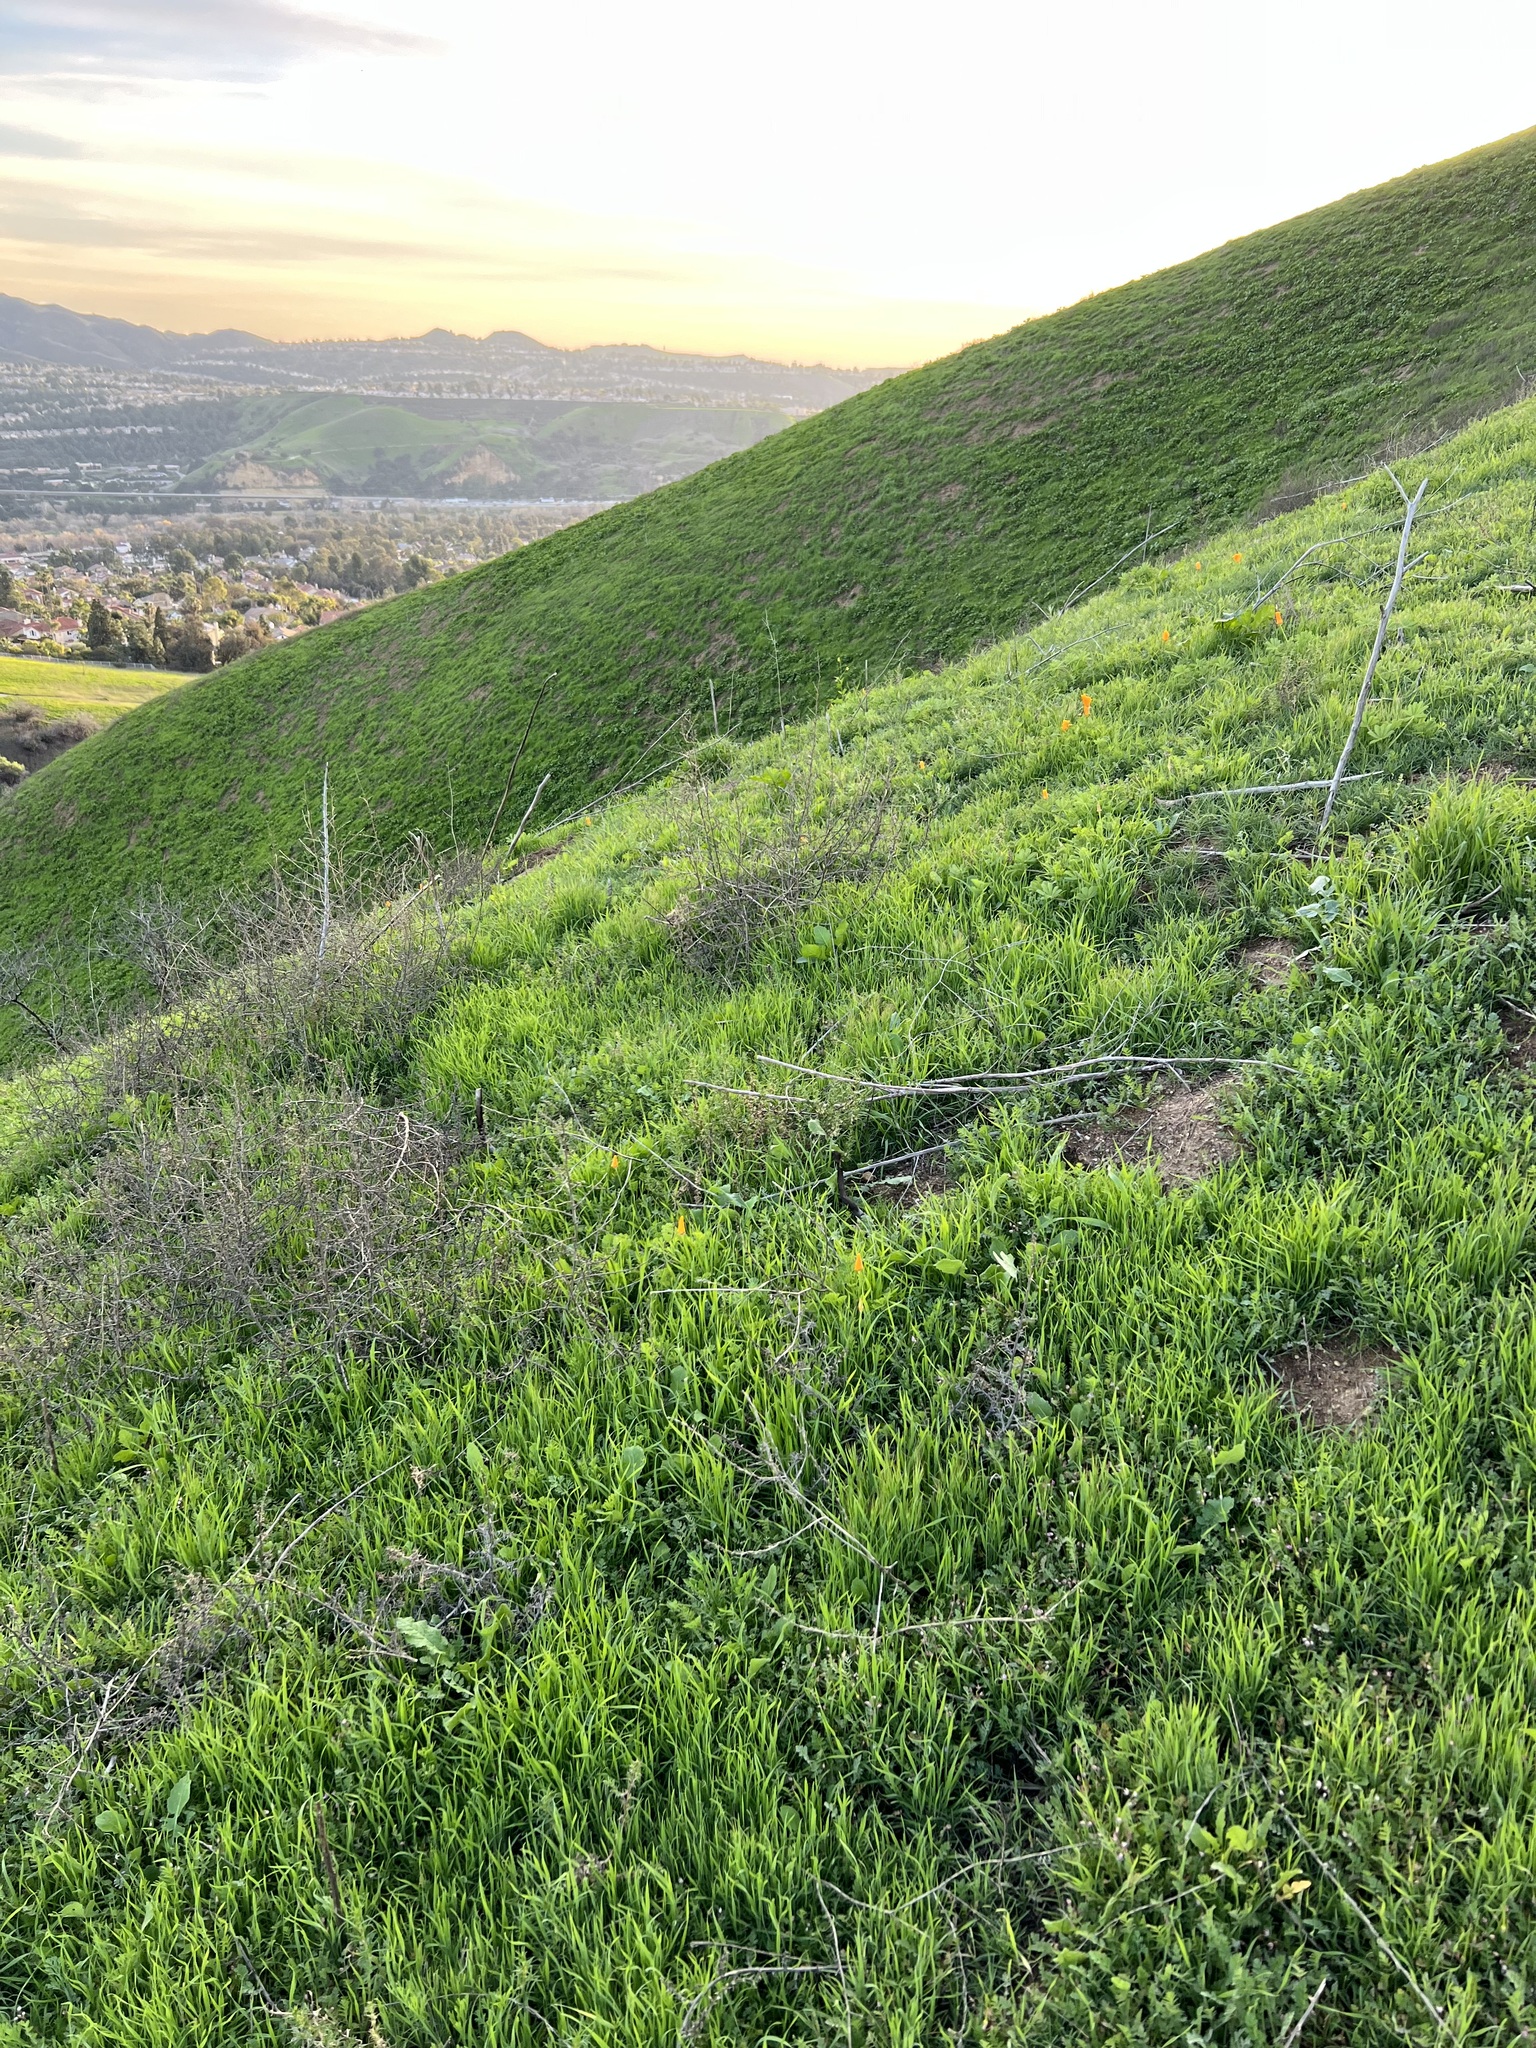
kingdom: Plantae
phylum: Tracheophyta
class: Magnoliopsida
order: Ranunculales
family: Papaveraceae
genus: Eschscholzia
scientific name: Eschscholzia californica
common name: California poppy
